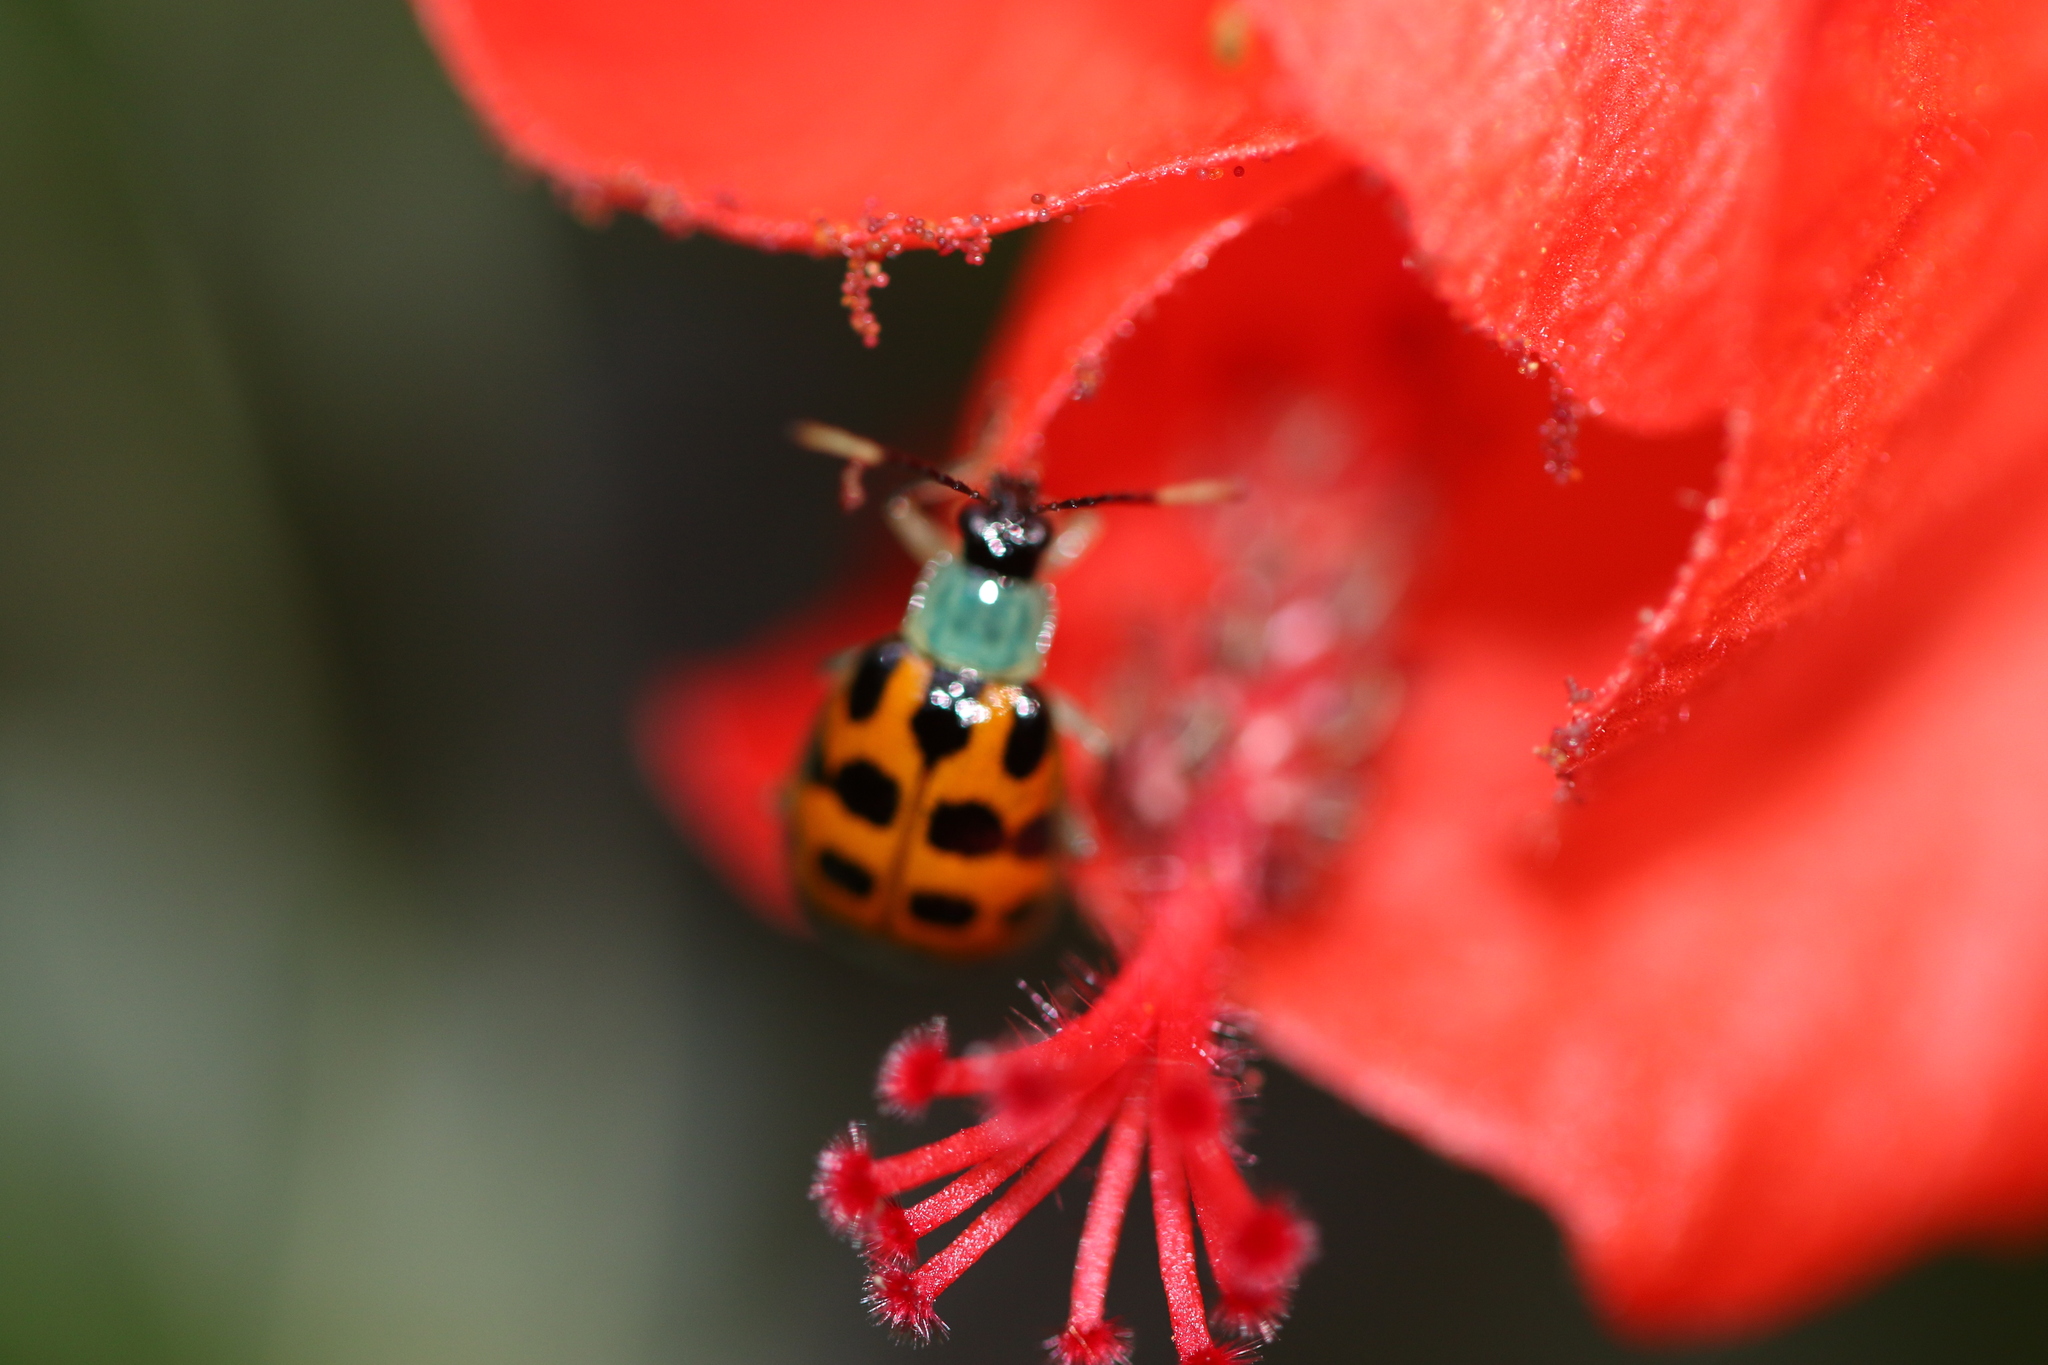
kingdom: Animalia
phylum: Arthropoda
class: Insecta
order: Coleoptera
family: Chrysomelidae
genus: Diabrotica
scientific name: Diabrotica limitata
